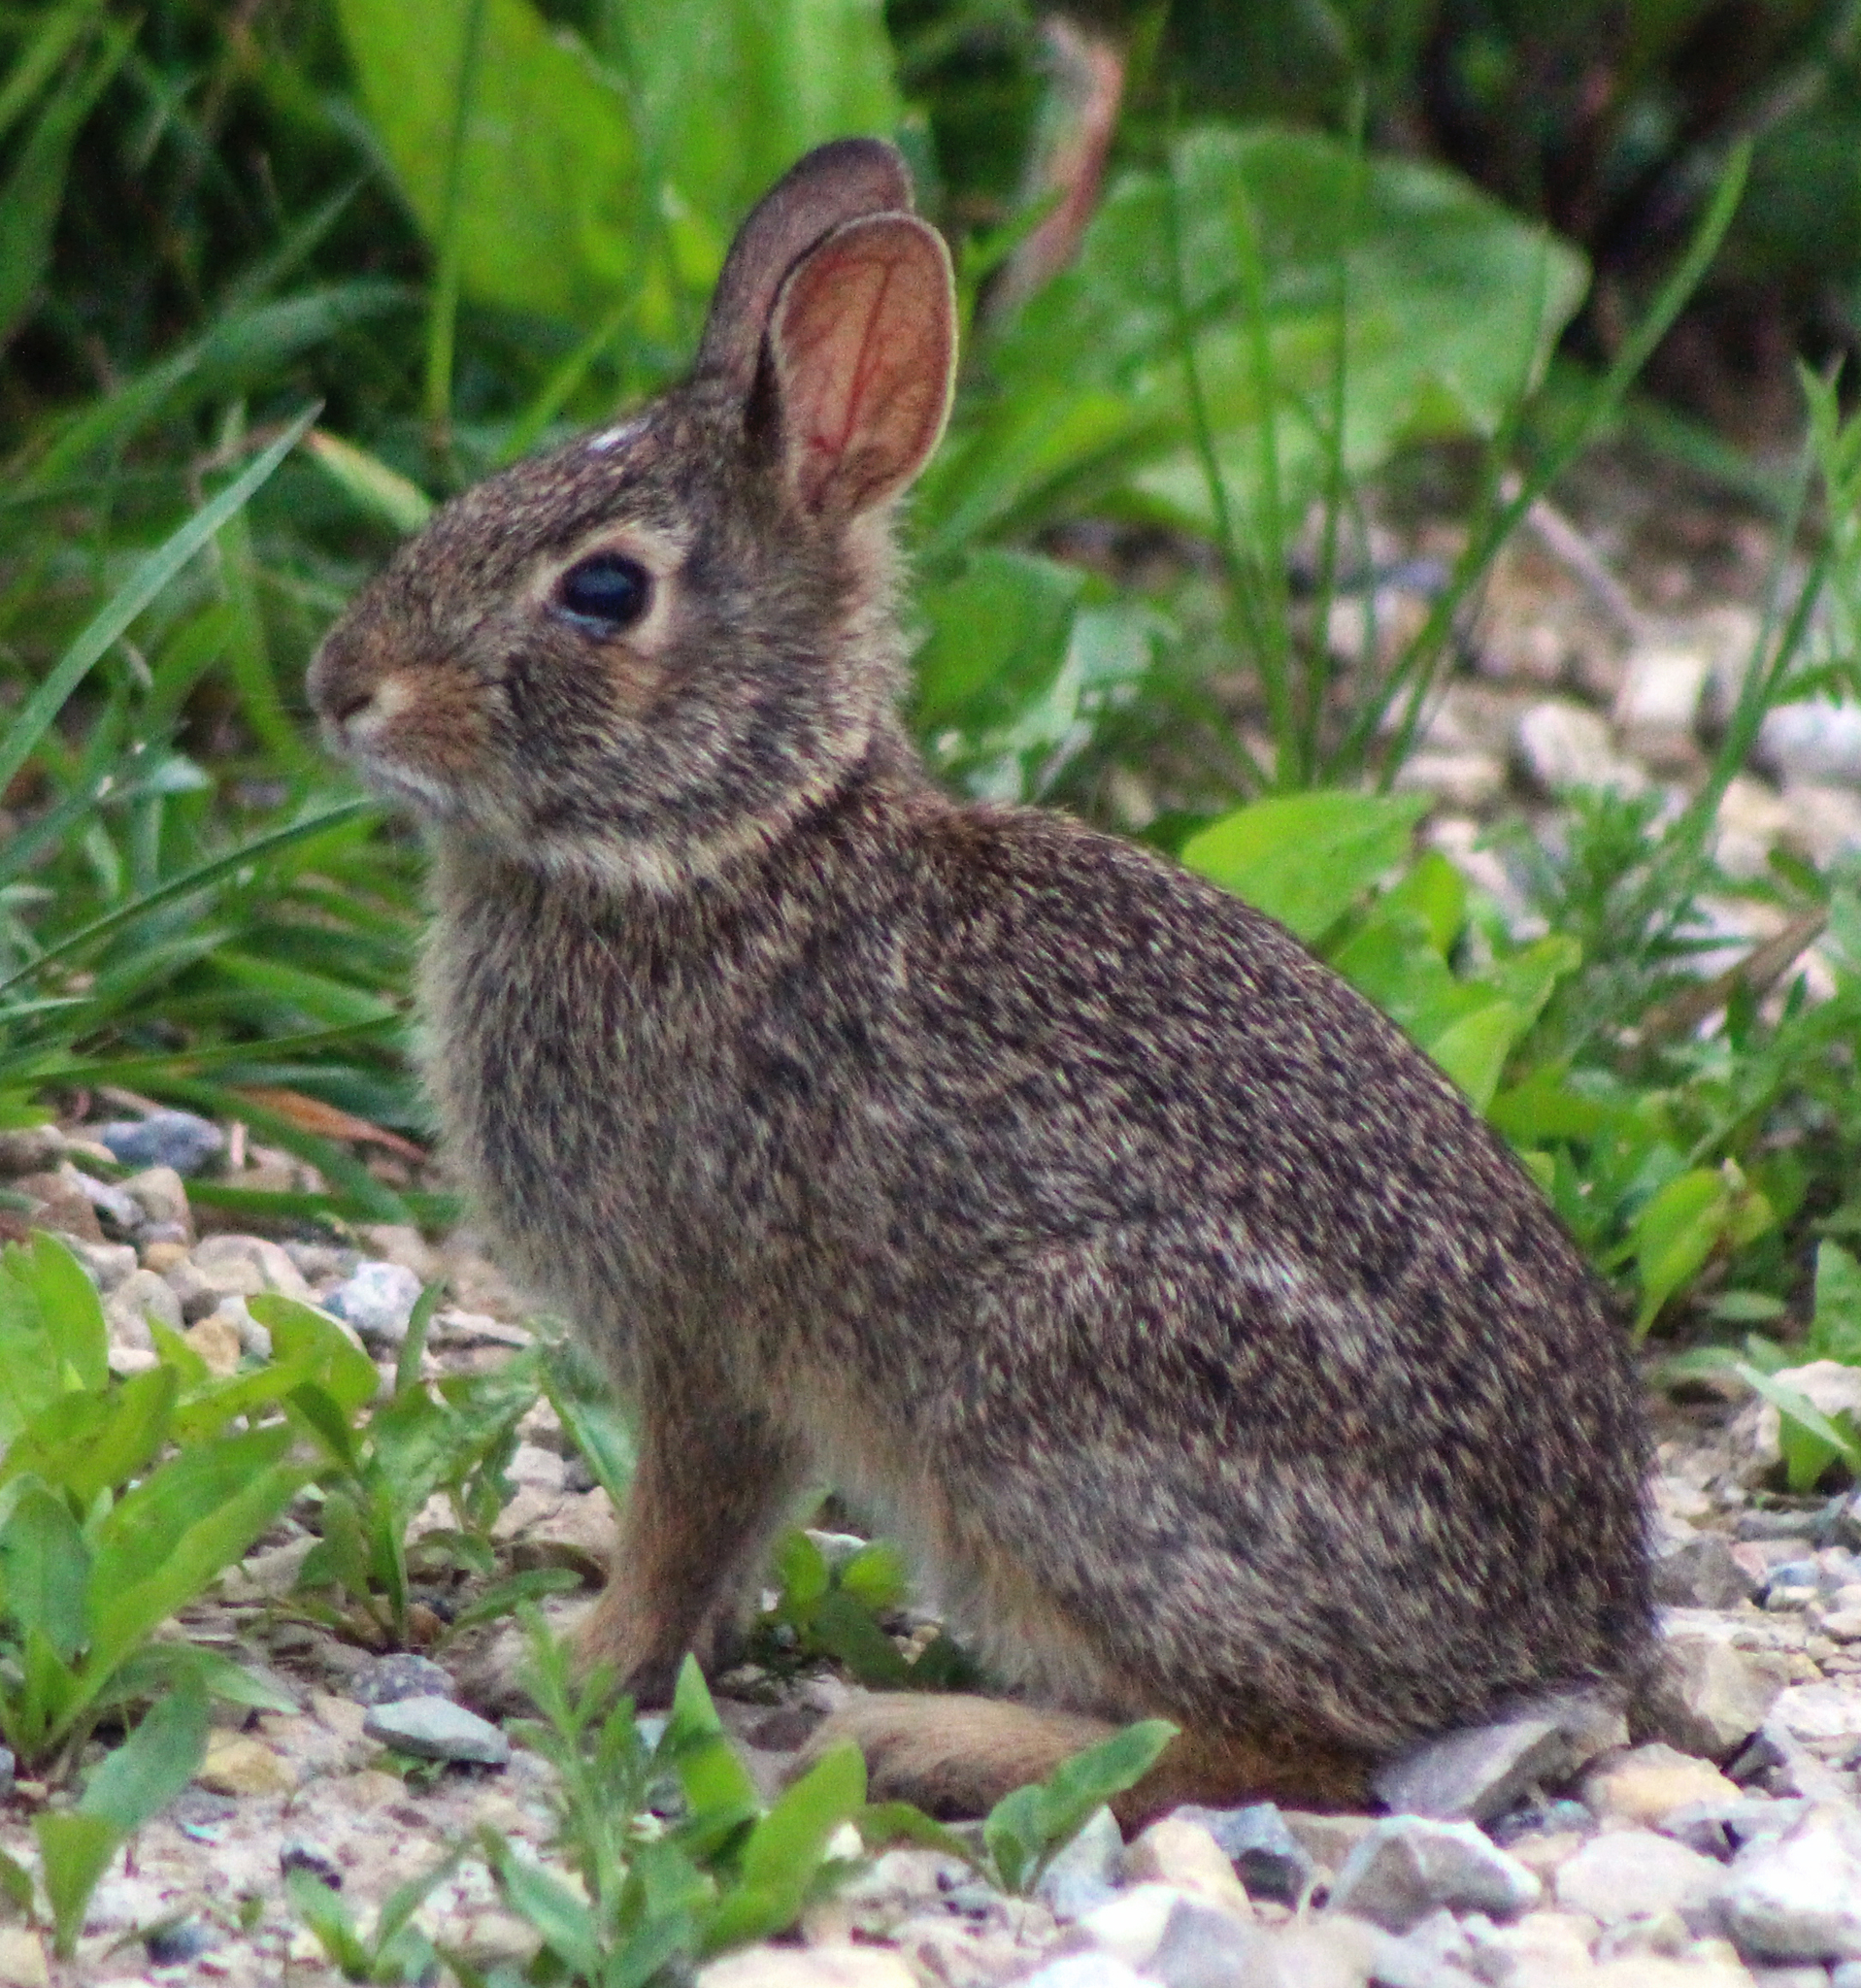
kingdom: Animalia
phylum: Chordata
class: Mammalia
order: Lagomorpha
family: Leporidae
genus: Sylvilagus
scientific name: Sylvilagus floridanus
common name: Eastern cottontail
